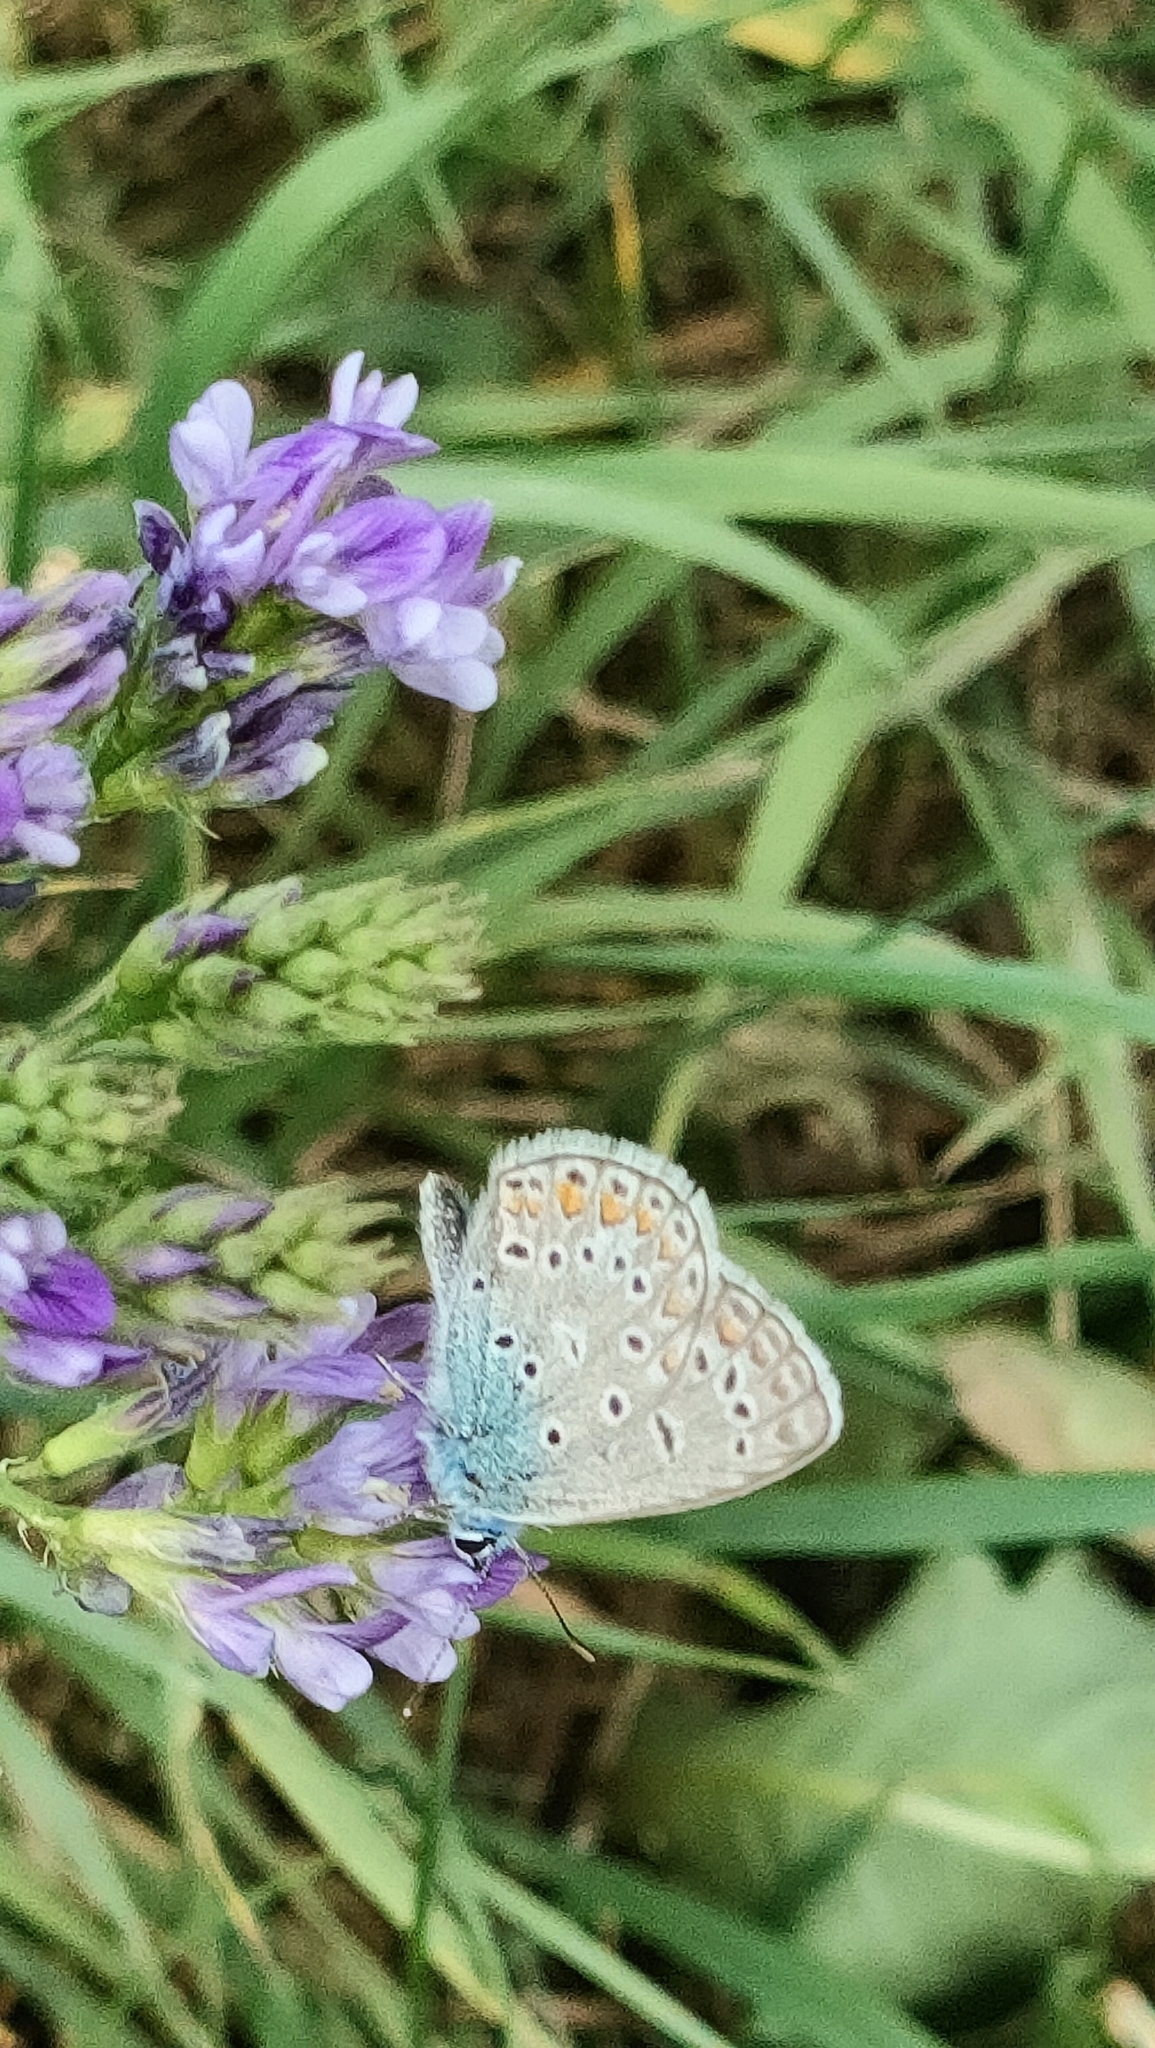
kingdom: Animalia
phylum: Arthropoda
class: Insecta
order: Lepidoptera
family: Lycaenidae
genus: Polyommatus
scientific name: Polyommatus icarus
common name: Common blue
